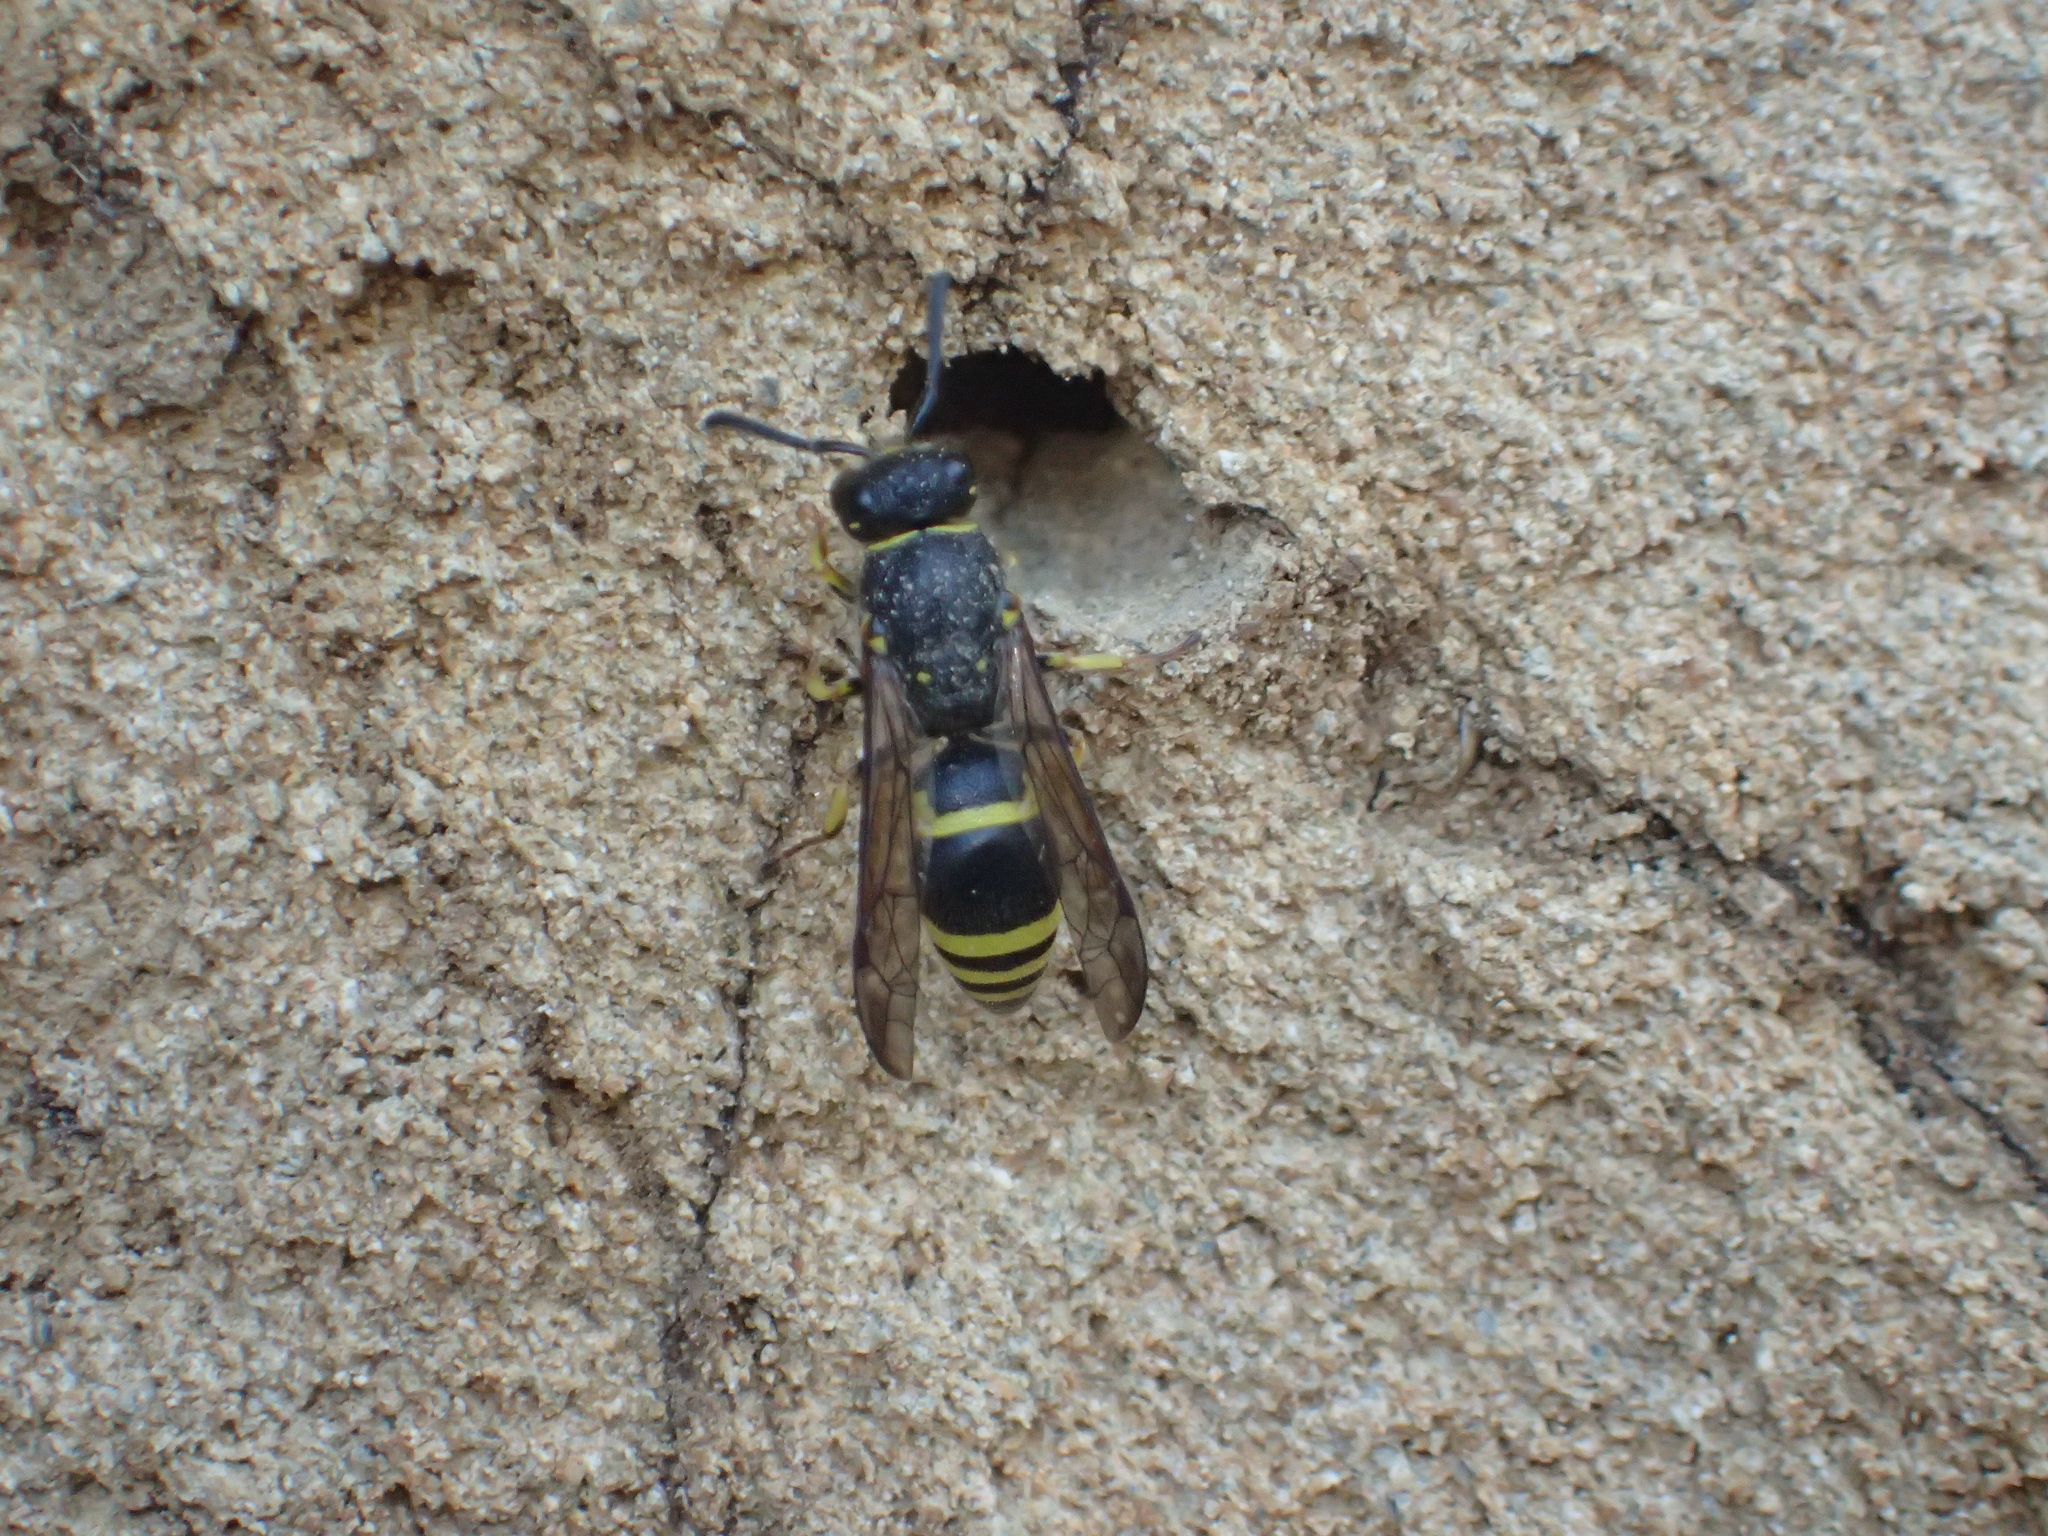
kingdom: Animalia
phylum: Arthropoda
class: Insecta
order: Hymenoptera
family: Vespidae
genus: Ancistrocerus
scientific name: Ancistrocerus gazella
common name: European tube wasp
